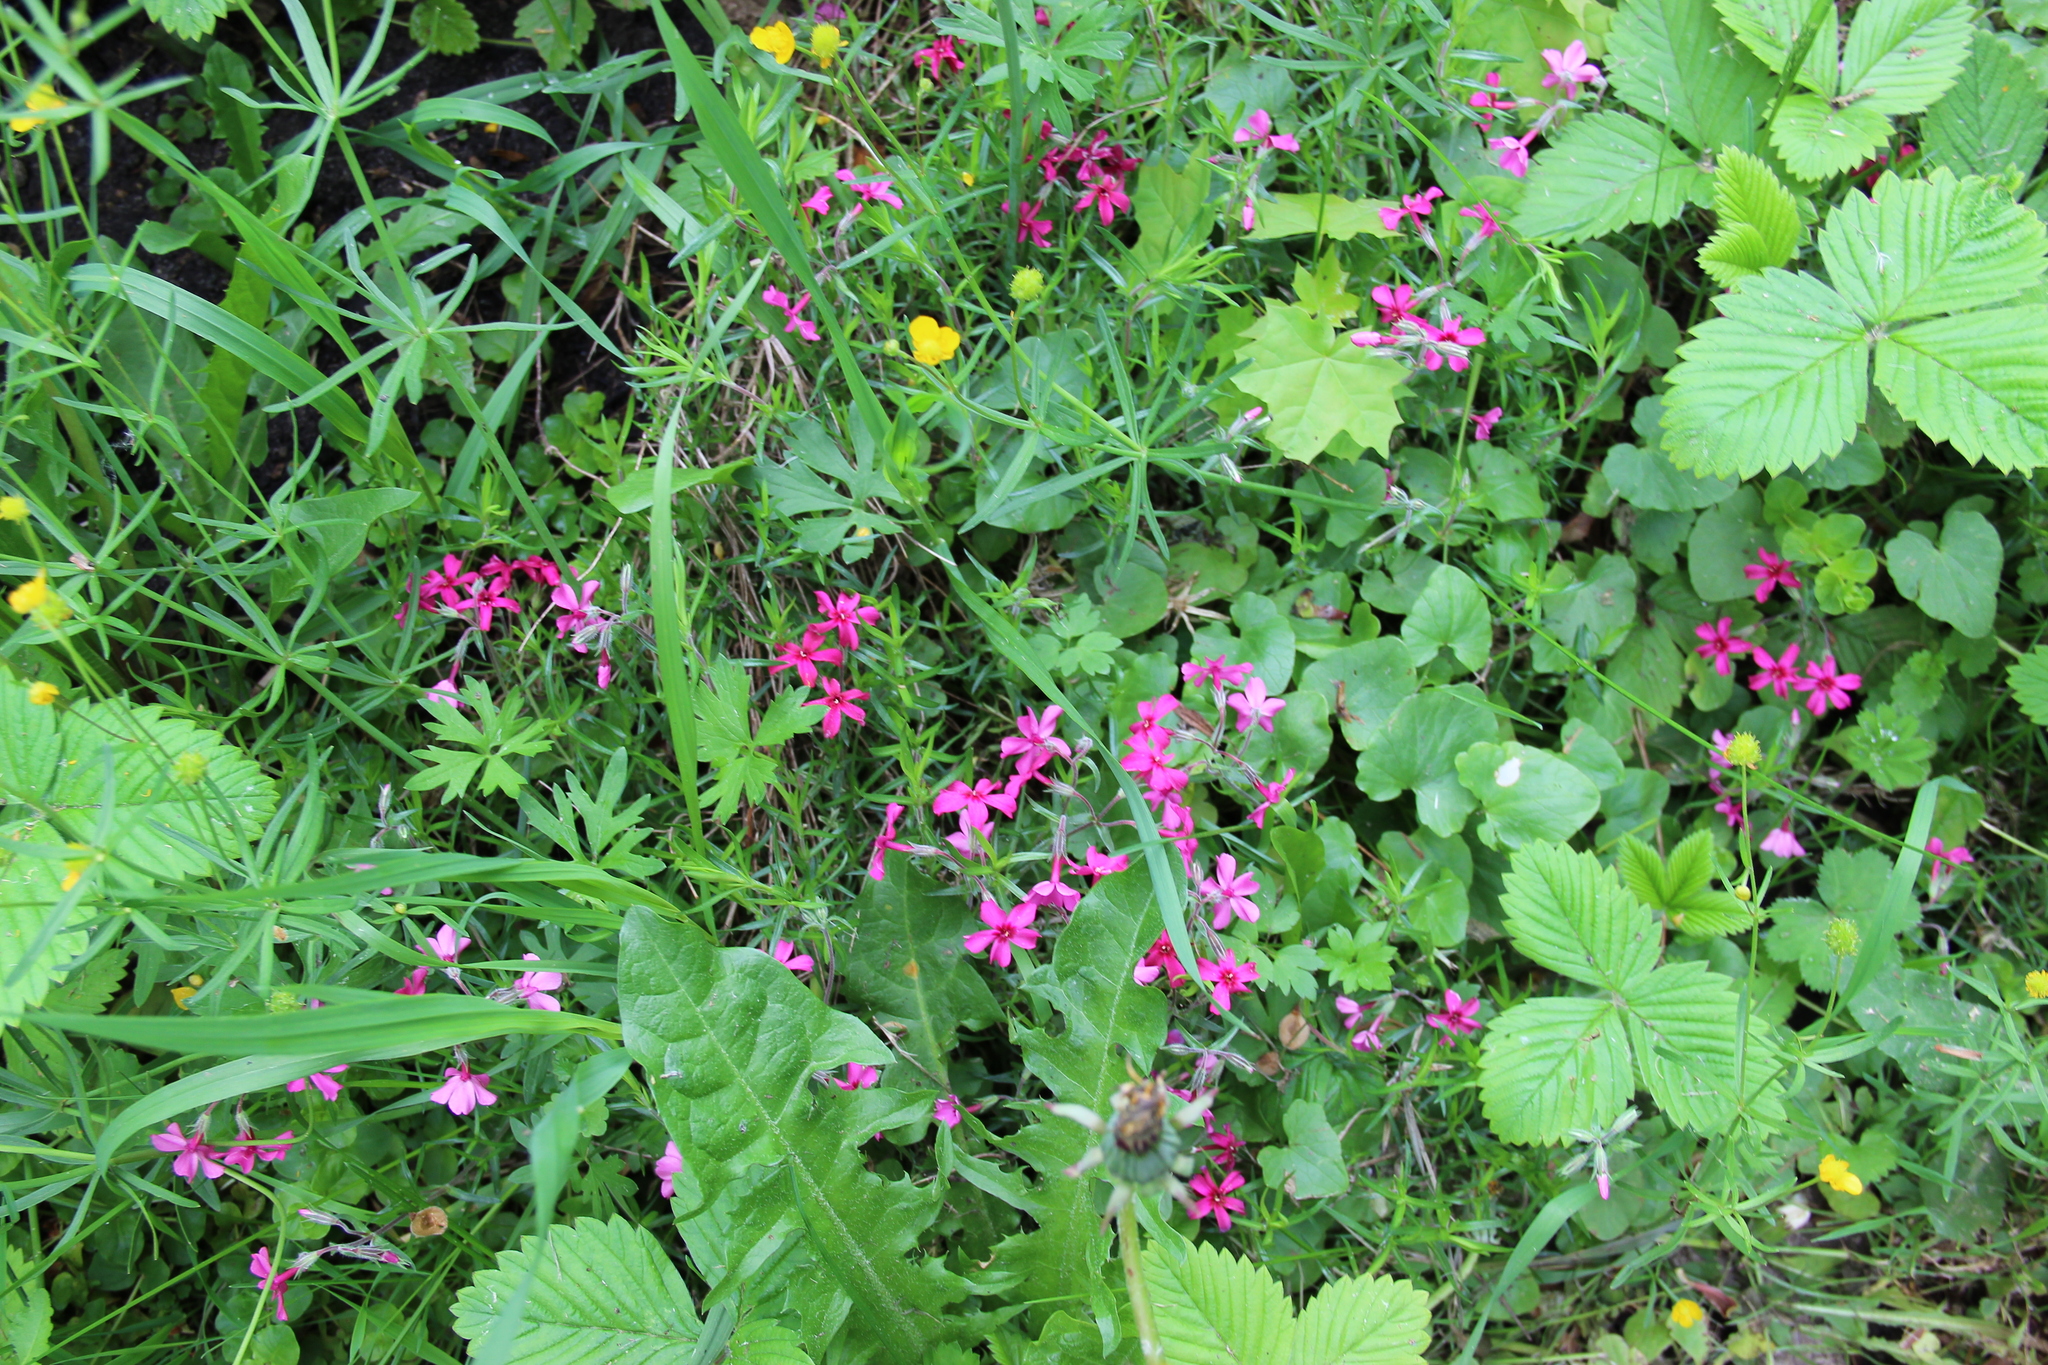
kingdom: Plantae
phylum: Tracheophyta
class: Magnoliopsida
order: Ericales
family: Polemoniaceae
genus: Phlox
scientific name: Phlox subulata
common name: Moss phlox
